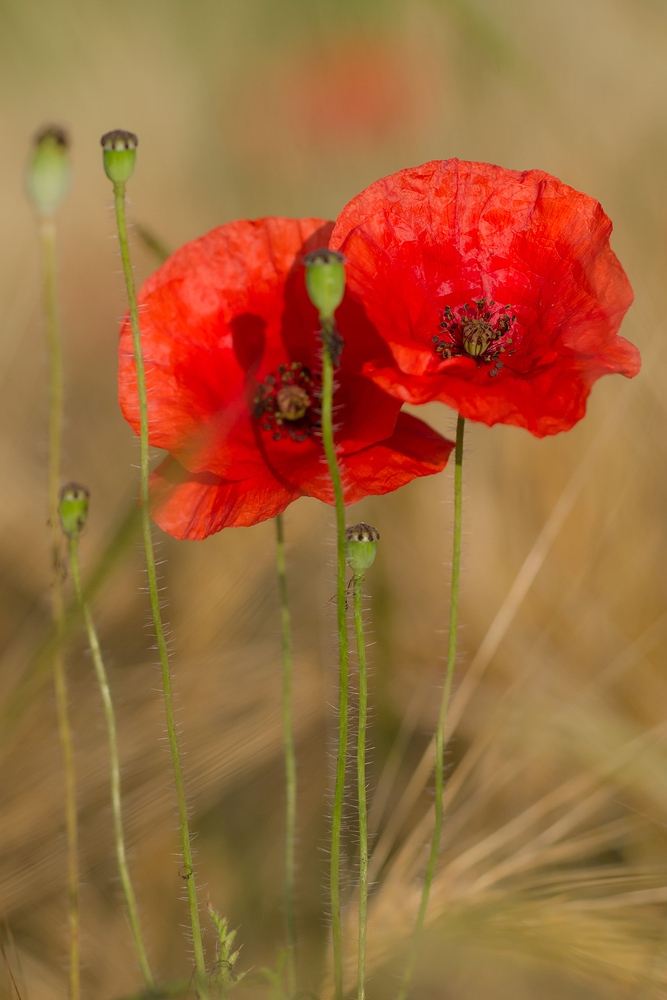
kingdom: Plantae
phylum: Tracheophyta
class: Magnoliopsida
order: Ranunculales
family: Papaveraceae
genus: Papaver
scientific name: Papaver rhoeas
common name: Corn poppy
